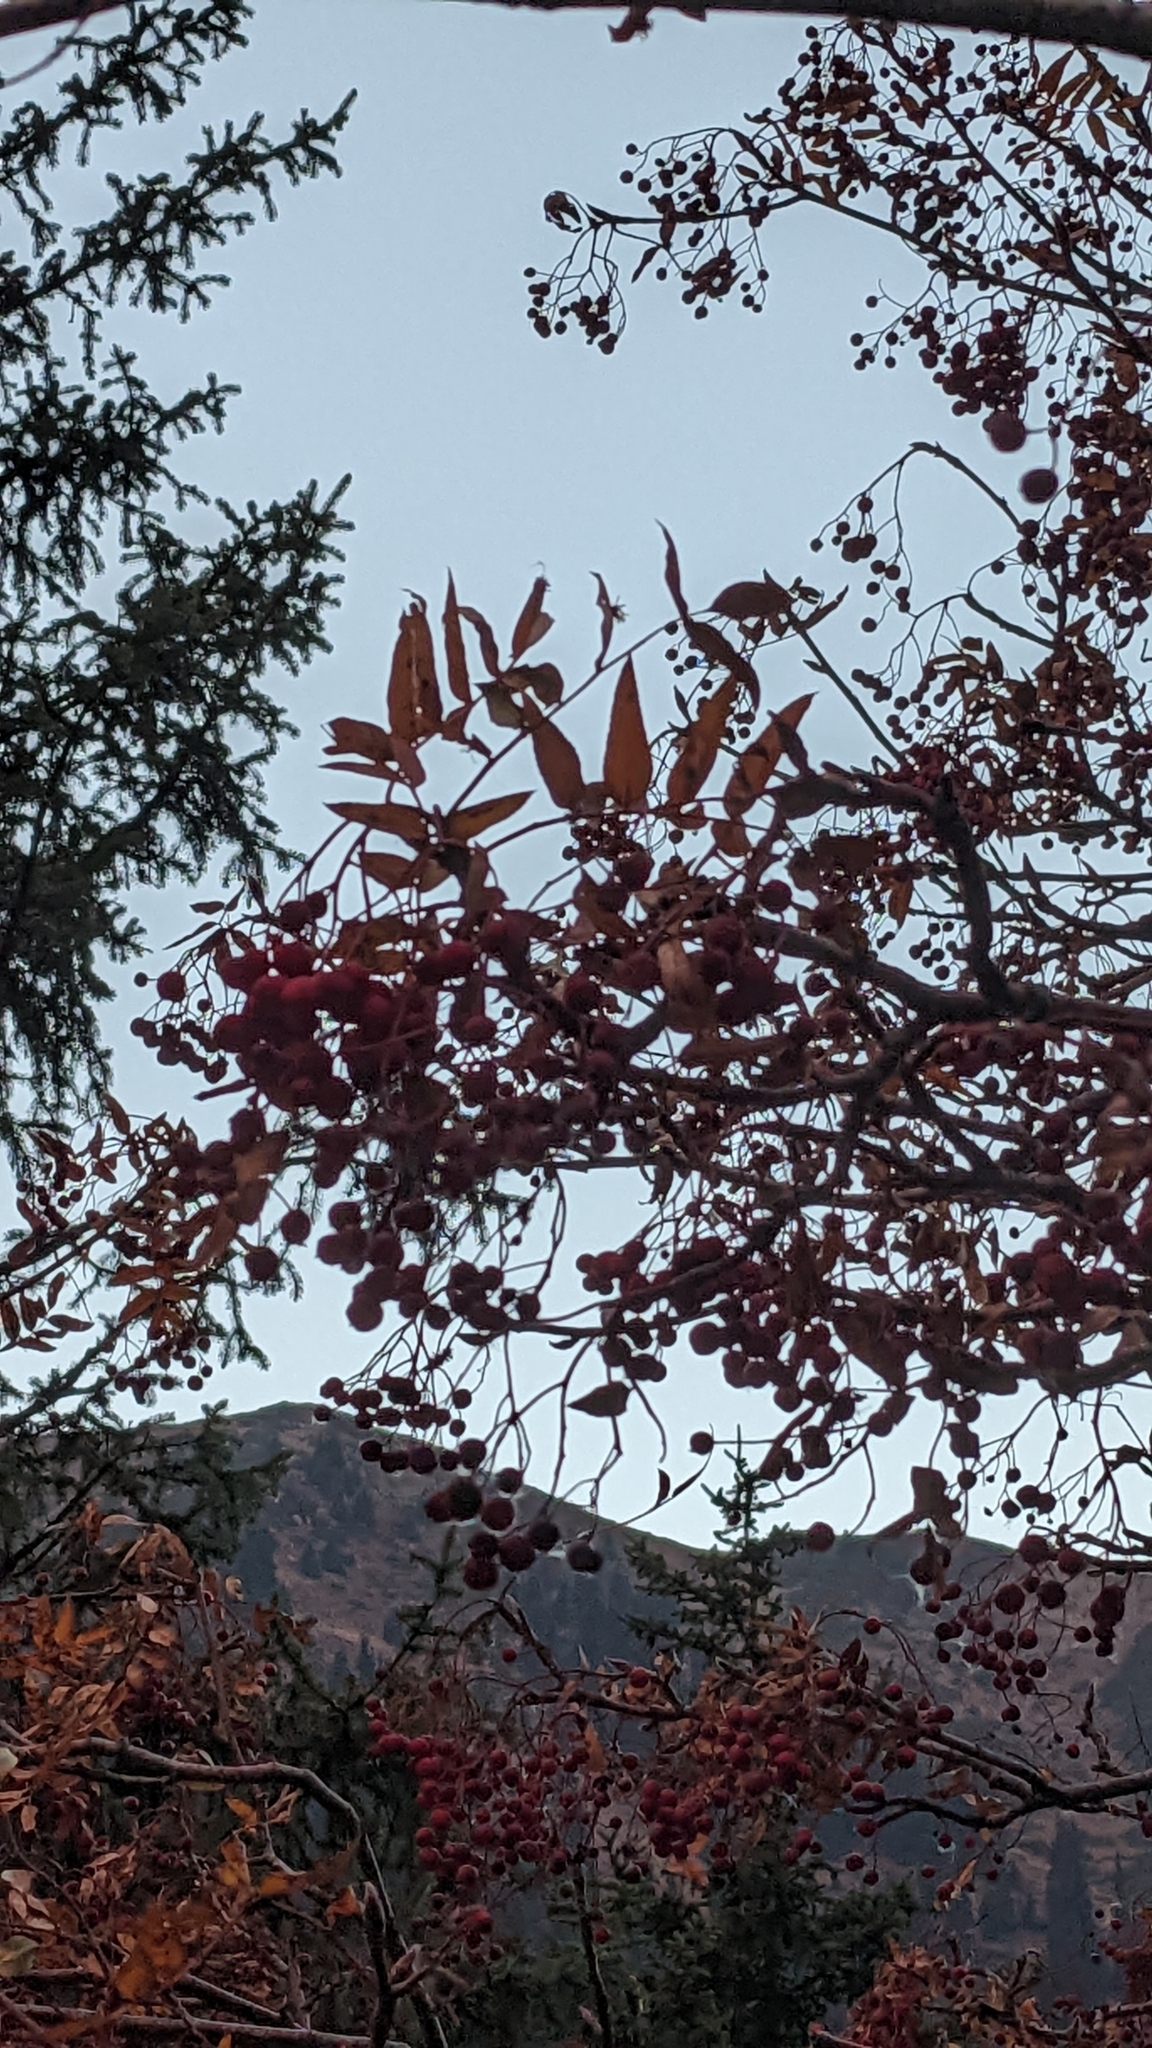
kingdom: Plantae
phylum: Tracheophyta
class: Magnoliopsida
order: Rosales
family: Rosaceae
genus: Sorbus
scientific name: Sorbus tianschanica
